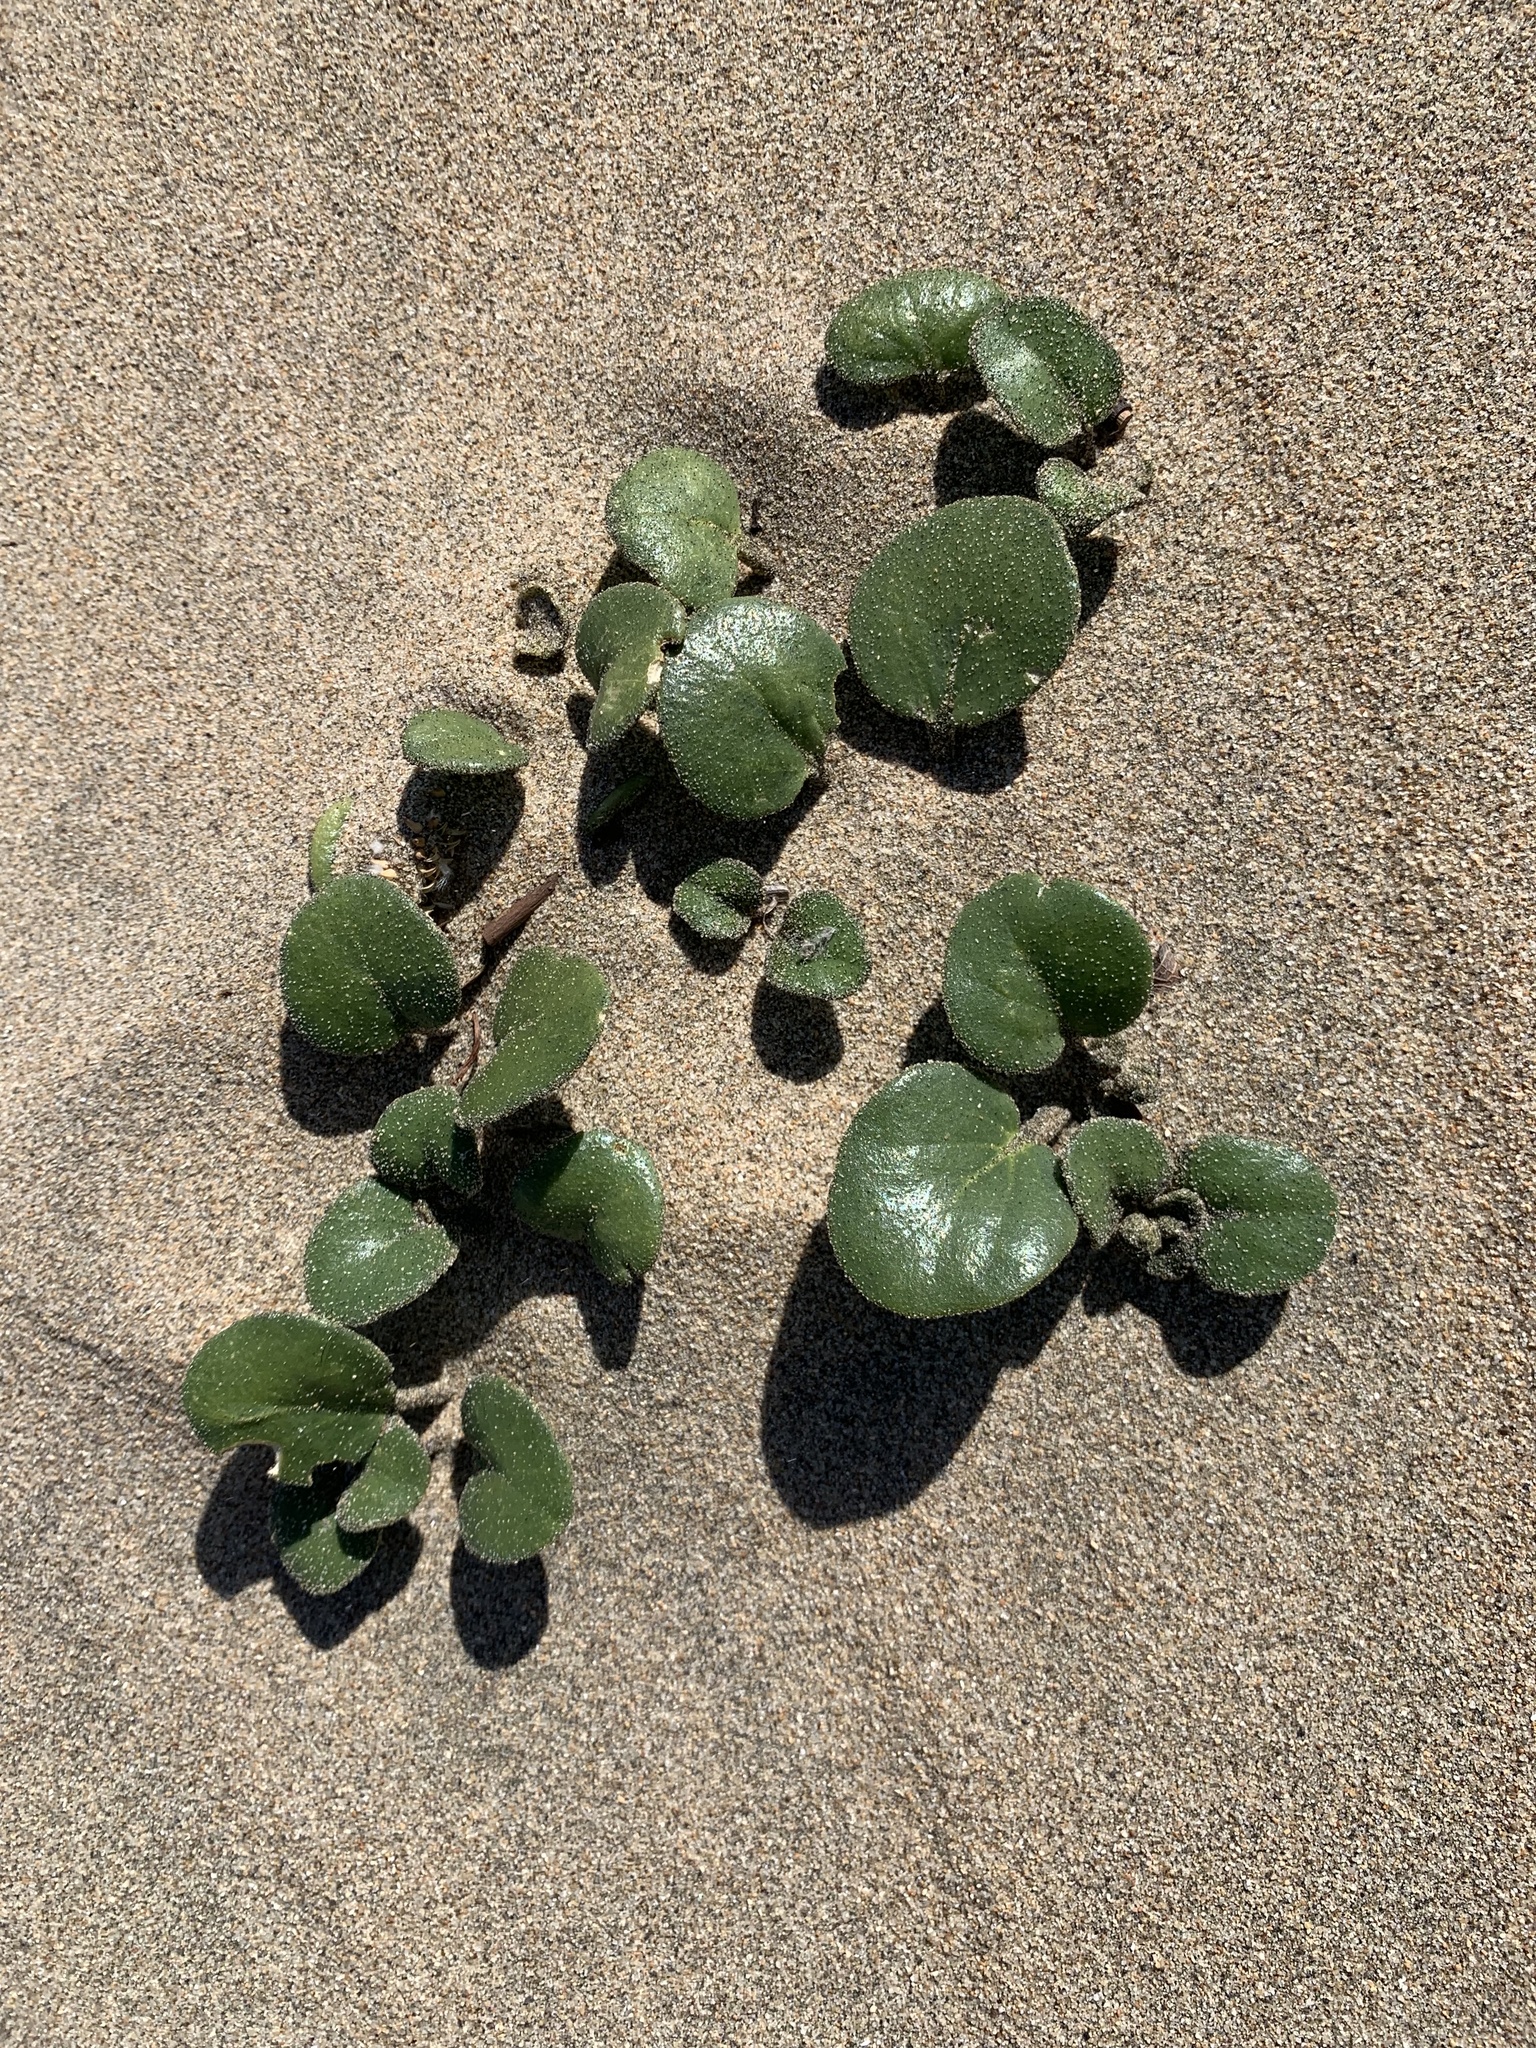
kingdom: Plantae
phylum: Tracheophyta
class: Magnoliopsida
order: Caryophyllales
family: Nyctaginaceae
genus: Abronia
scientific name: Abronia latifolia
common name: Yellow sand-verbena
